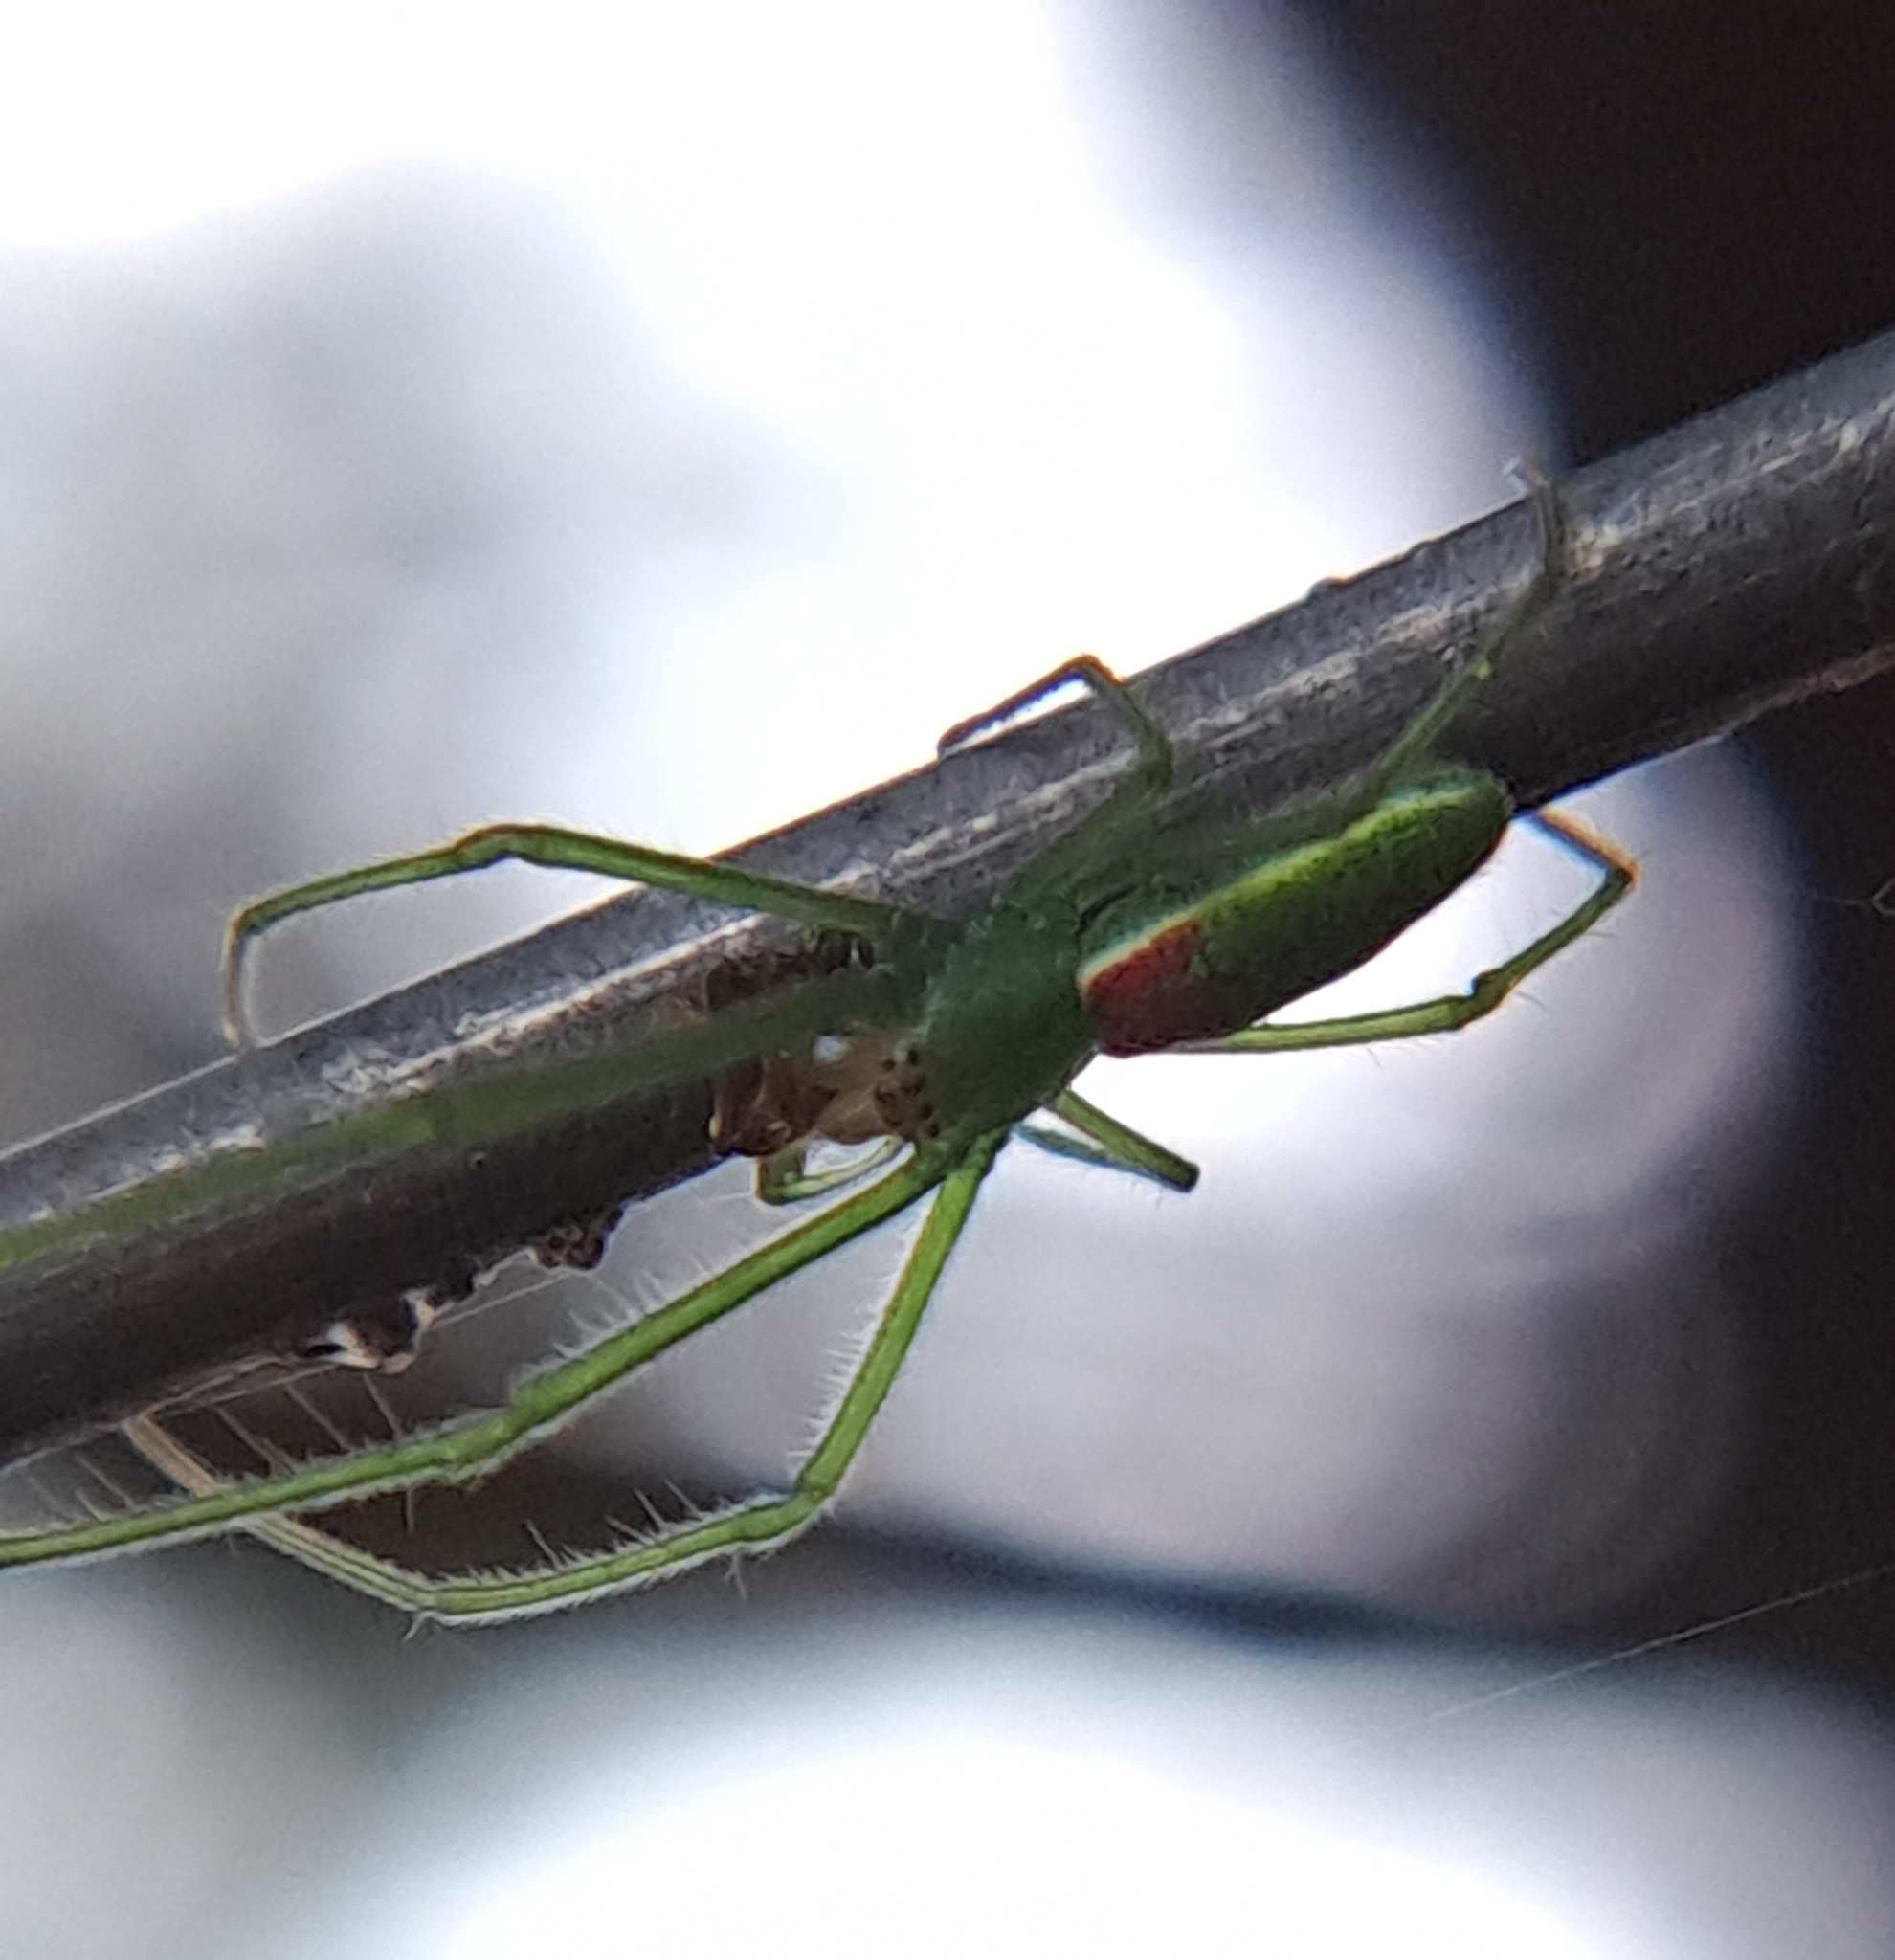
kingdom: Animalia
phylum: Arthropoda
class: Arachnida
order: Araneae
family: Tetragnathidae
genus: Tetragnatha
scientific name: Tetragnatha viridis
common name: Green long-jawed spider
